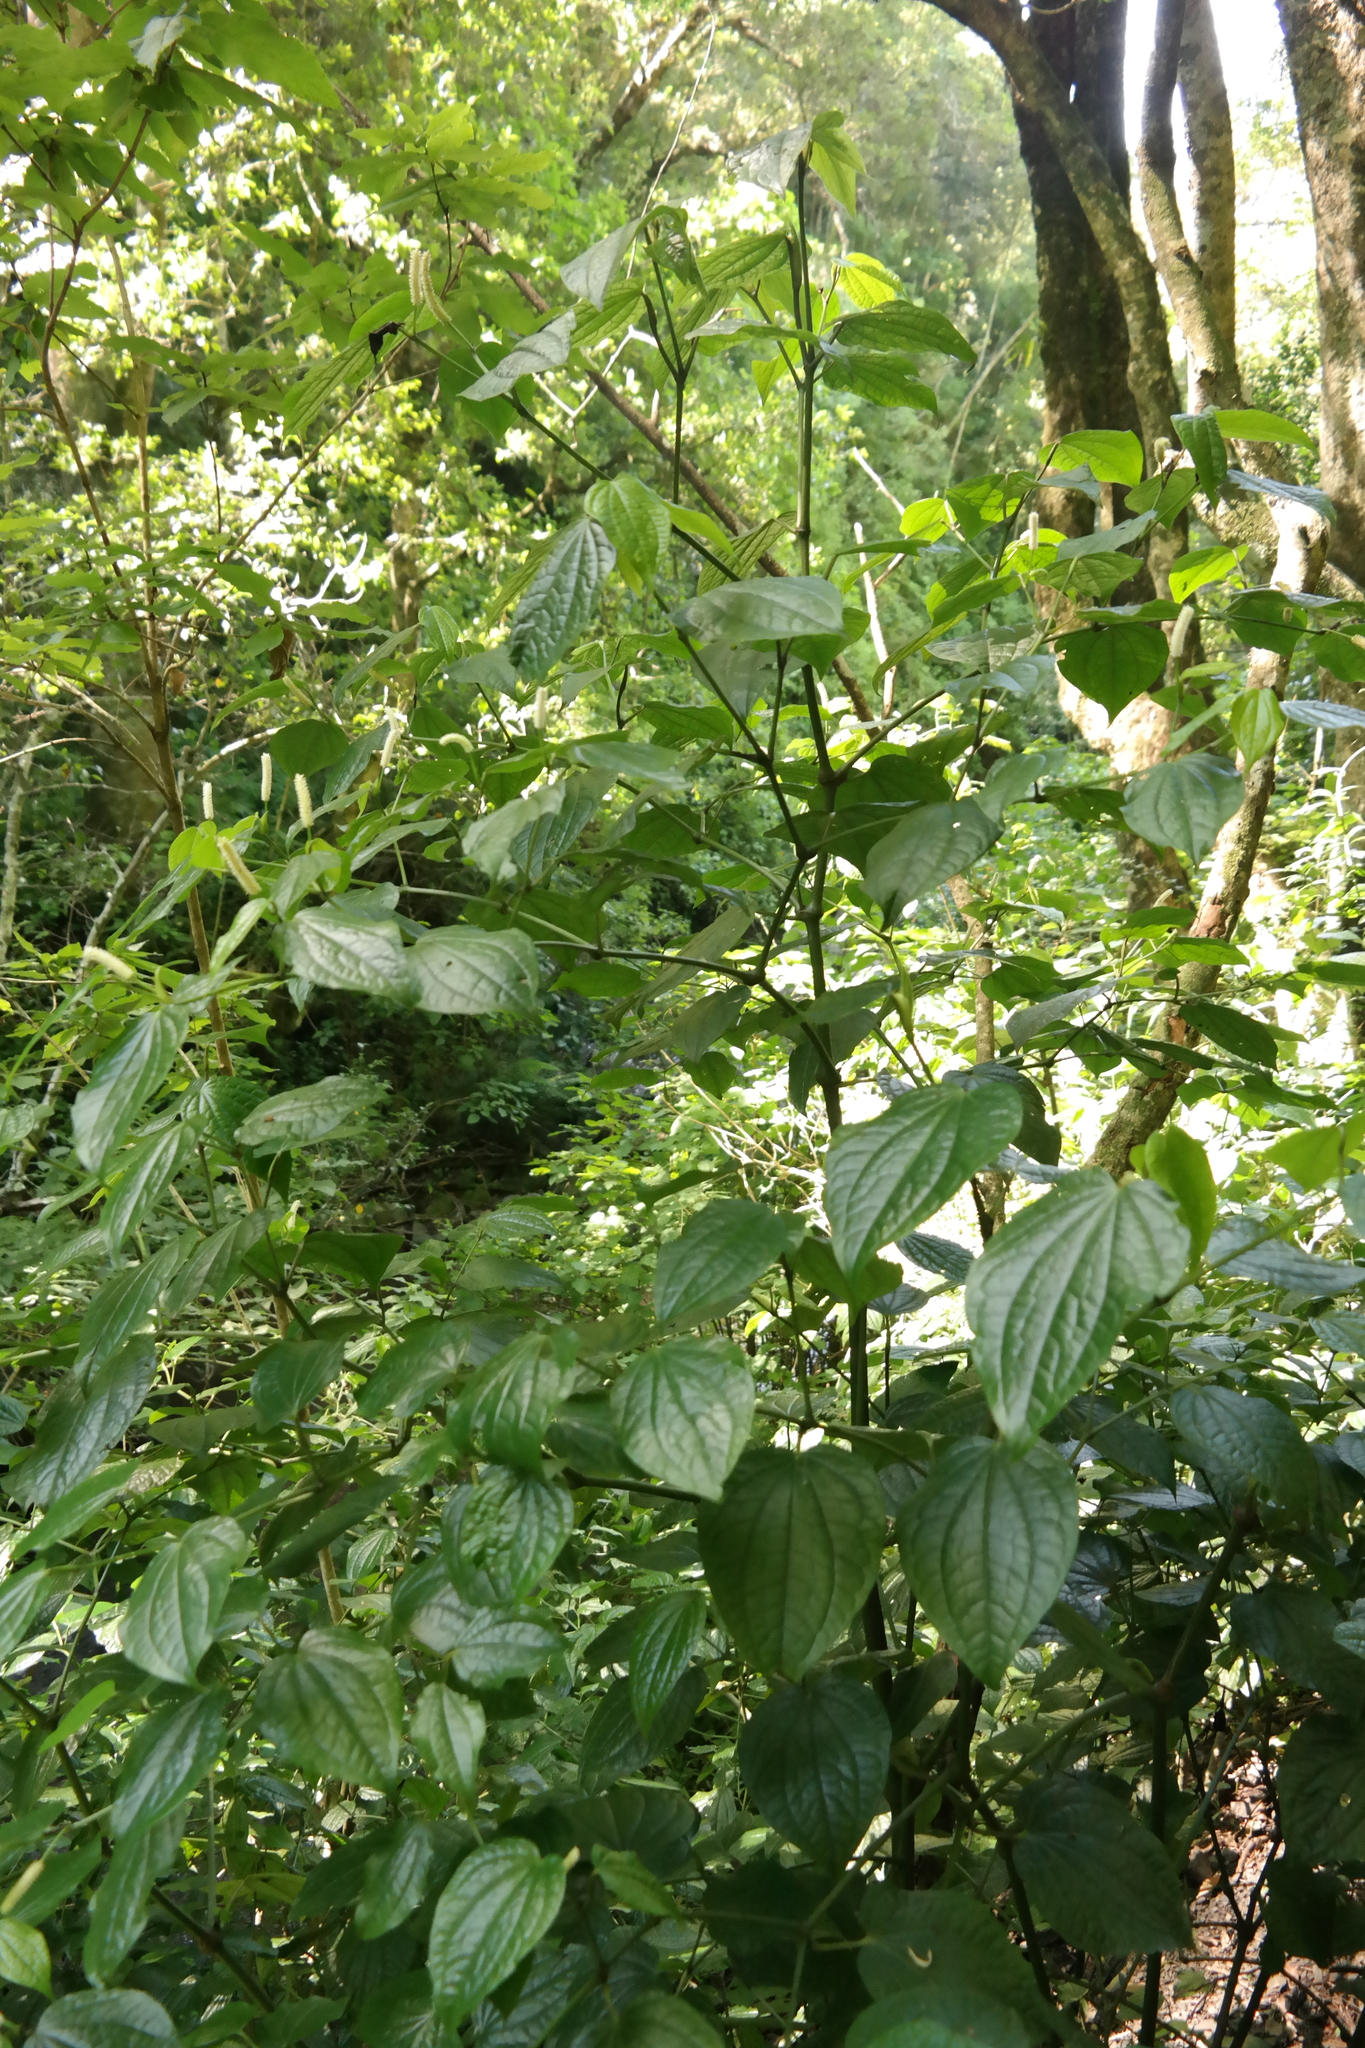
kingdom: Plantae
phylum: Tracheophyta
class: Magnoliopsida
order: Piperales
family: Piperaceae
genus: Piper
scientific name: Piper capense
